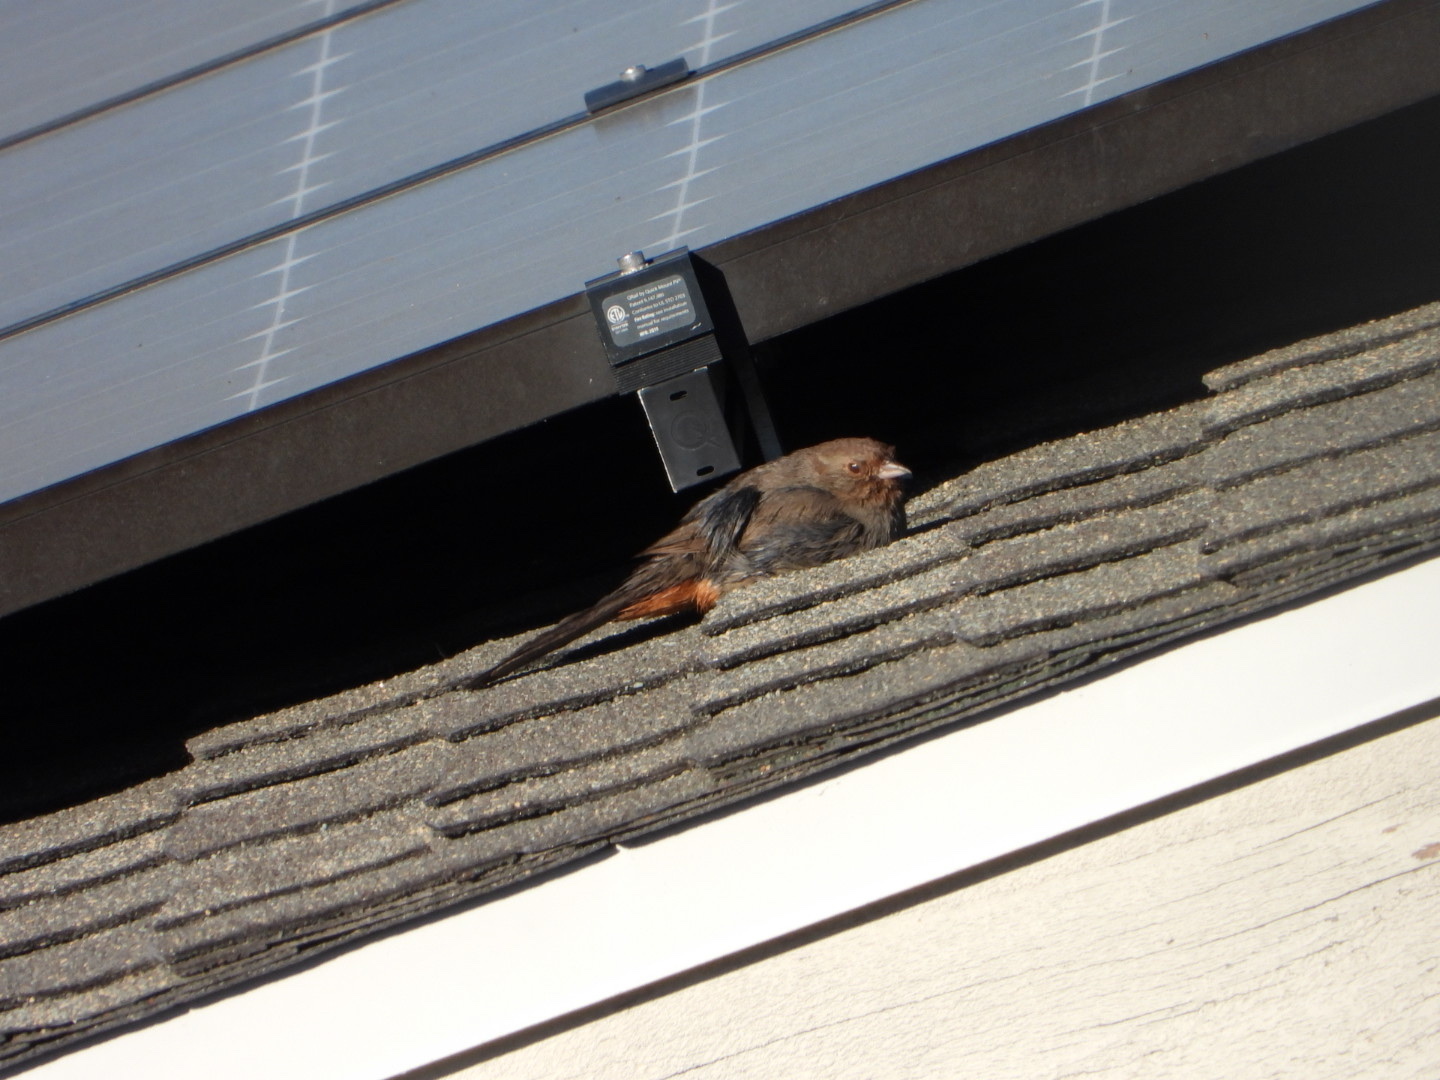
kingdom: Animalia
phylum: Chordata
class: Aves
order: Passeriformes
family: Passerellidae
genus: Melozone
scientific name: Melozone crissalis
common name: California towhee
